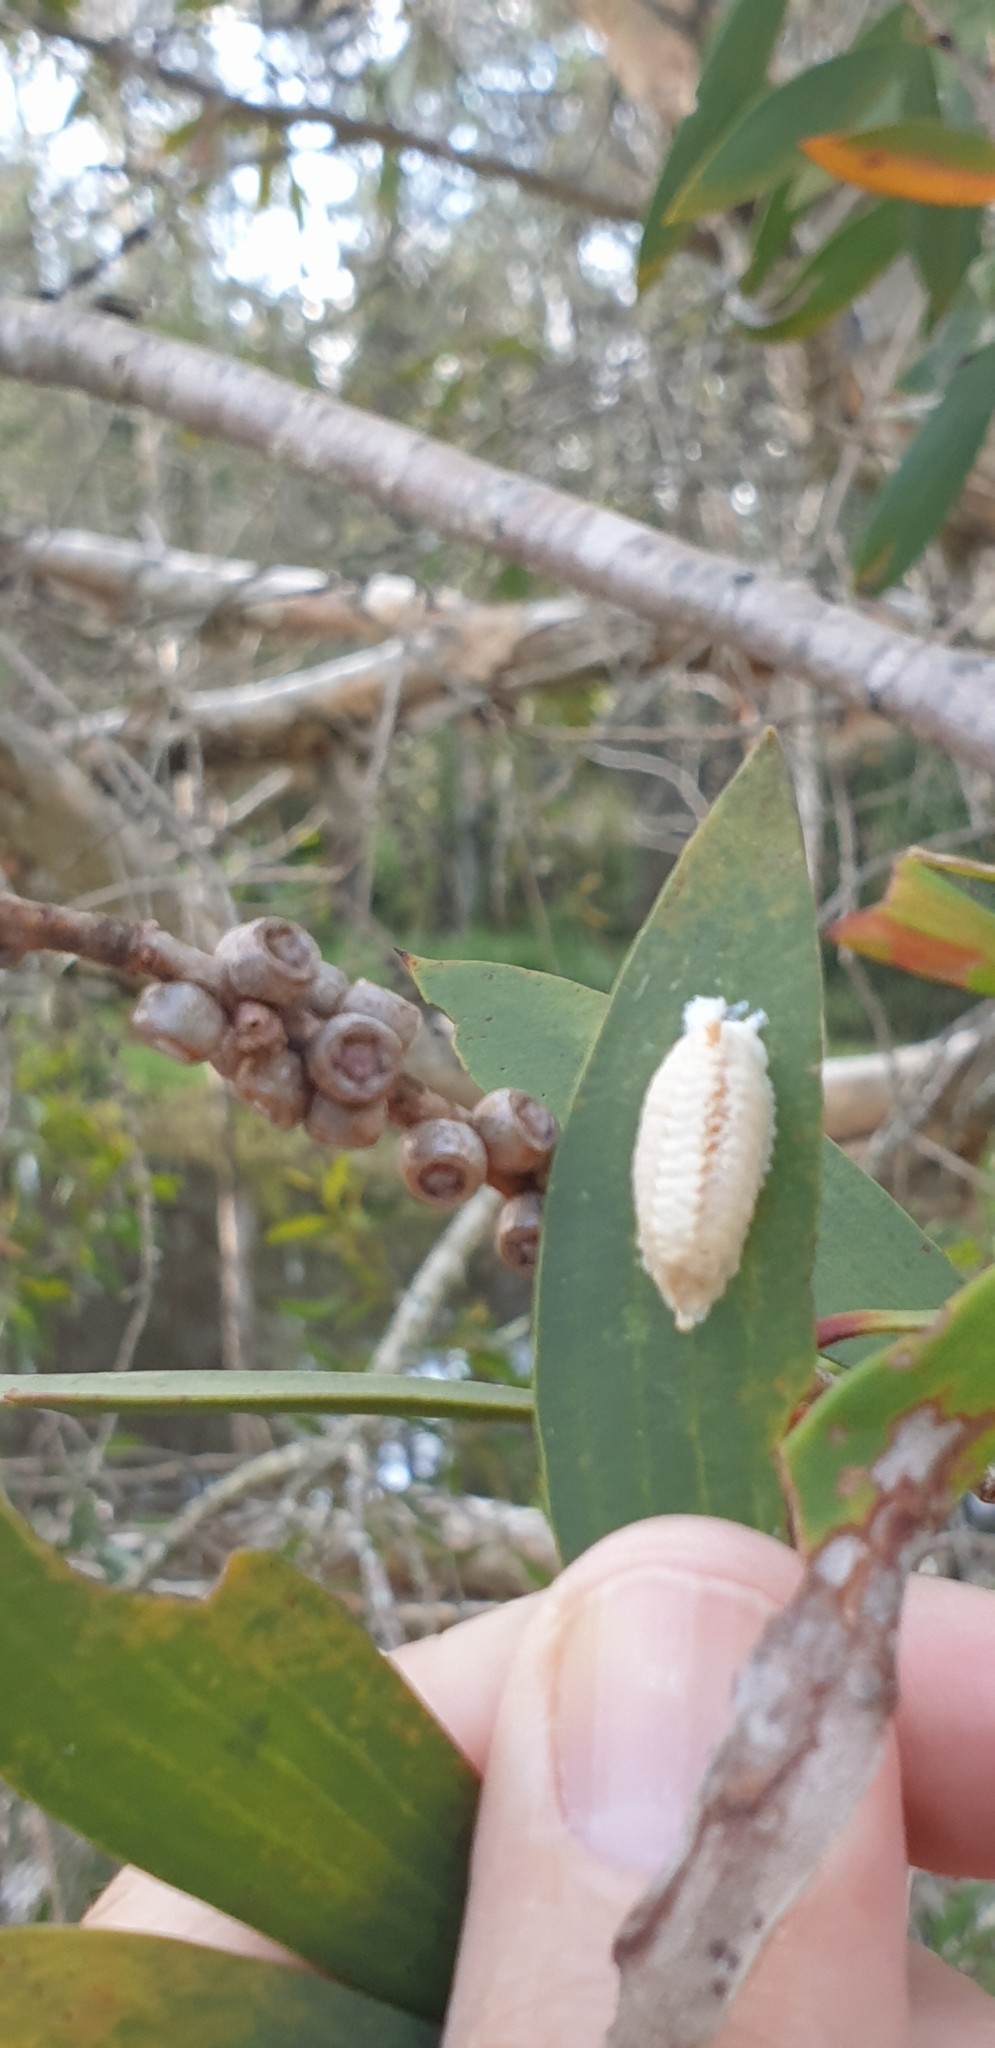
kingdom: Animalia
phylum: Arthropoda
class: Insecta
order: Mantodea
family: Mantidae
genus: Orthodera
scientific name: Orthodera ministralis
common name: Mantis
